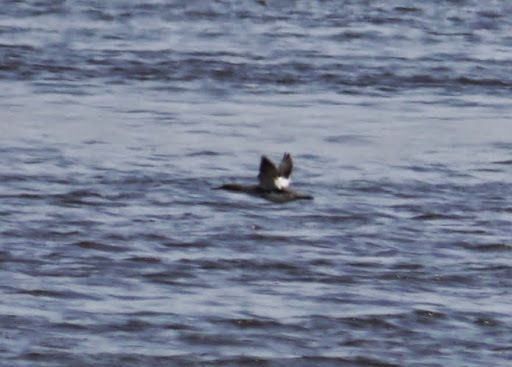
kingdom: Animalia
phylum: Chordata
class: Aves
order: Anseriformes
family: Anatidae
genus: Mergus
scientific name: Mergus serrator
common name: Red-breasted merganser
